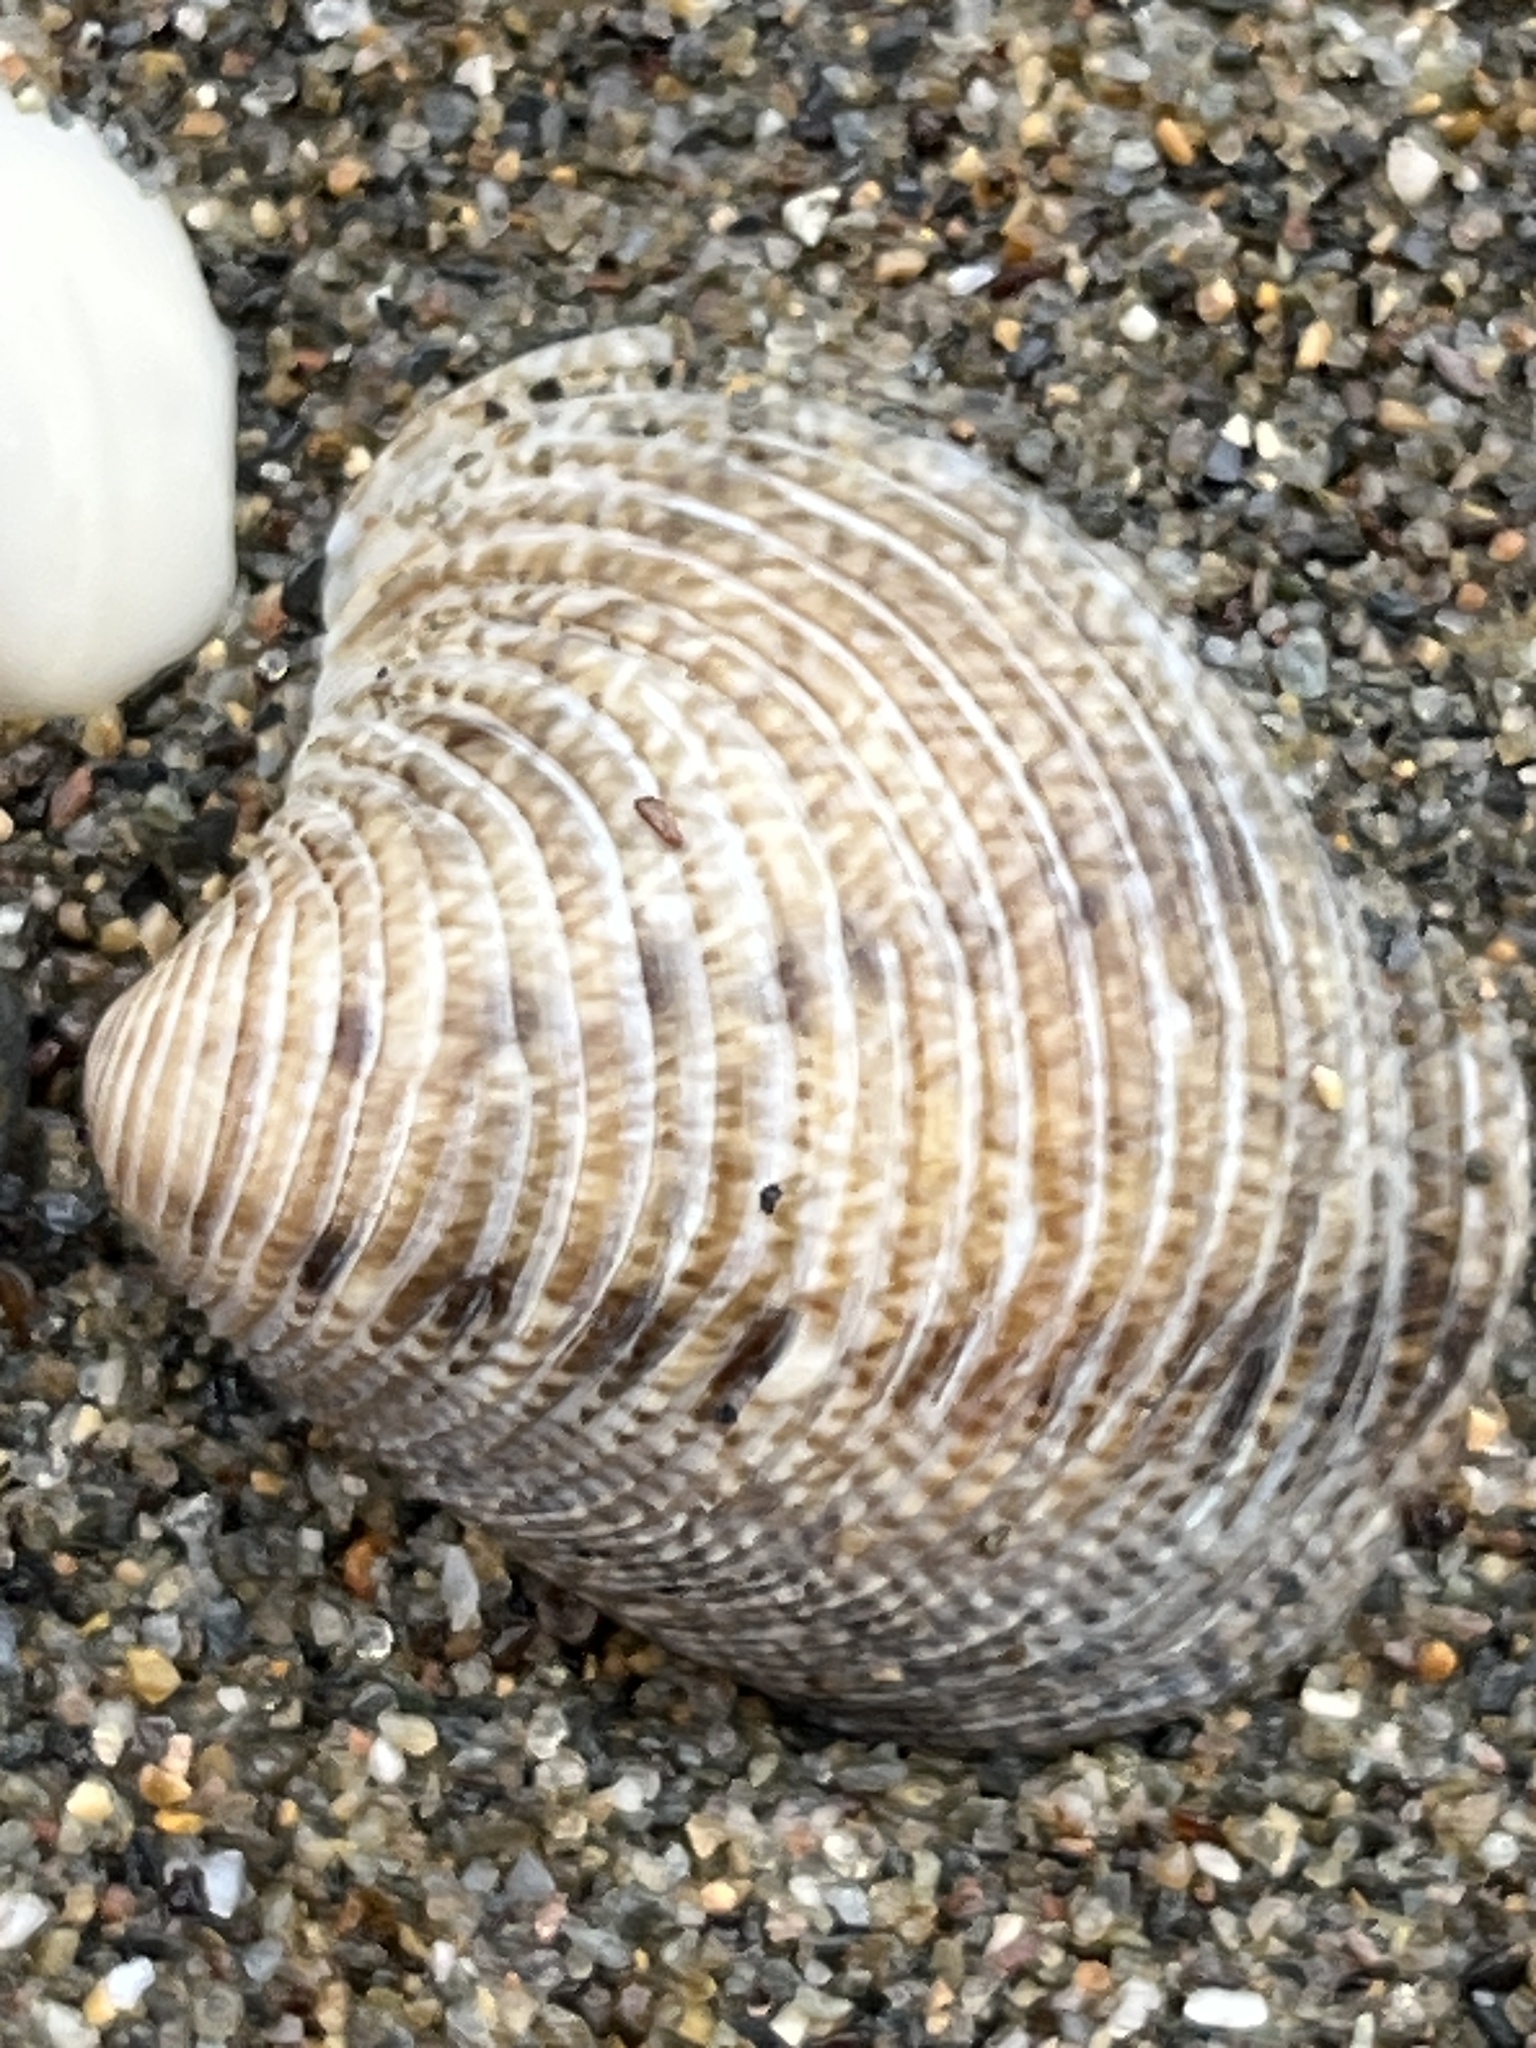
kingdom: Animalia
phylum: Mollusca
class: Bivalvia
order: Venerida
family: Veneridae
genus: Chamelea
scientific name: Chamelea gallina
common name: Chicken venus
